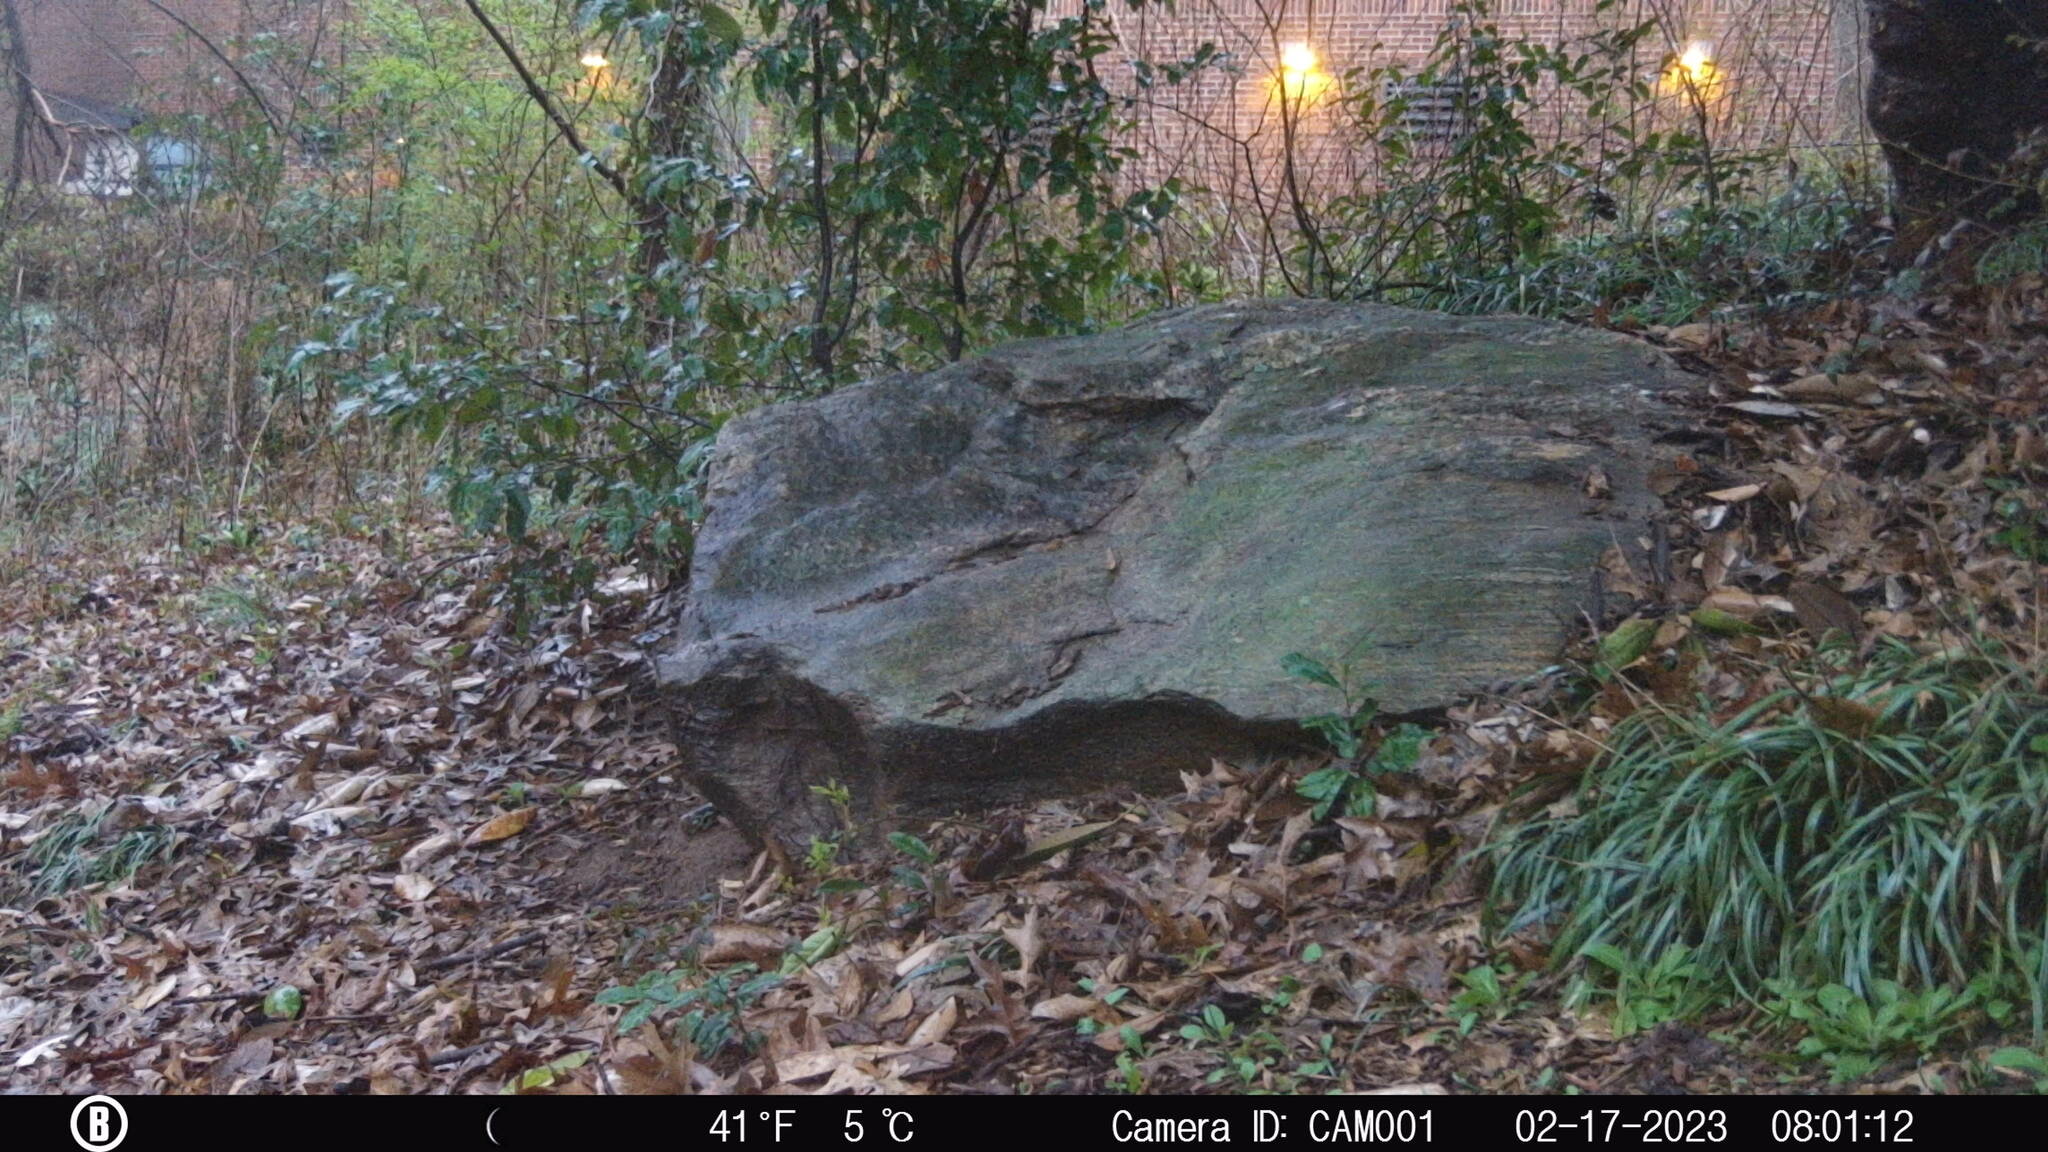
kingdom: Animalia
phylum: Chordata
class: Mammalia
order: Rodentia
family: Sciuridae
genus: Sciurus
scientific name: Sciurus carolinensis
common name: Eastern gray squirrel
